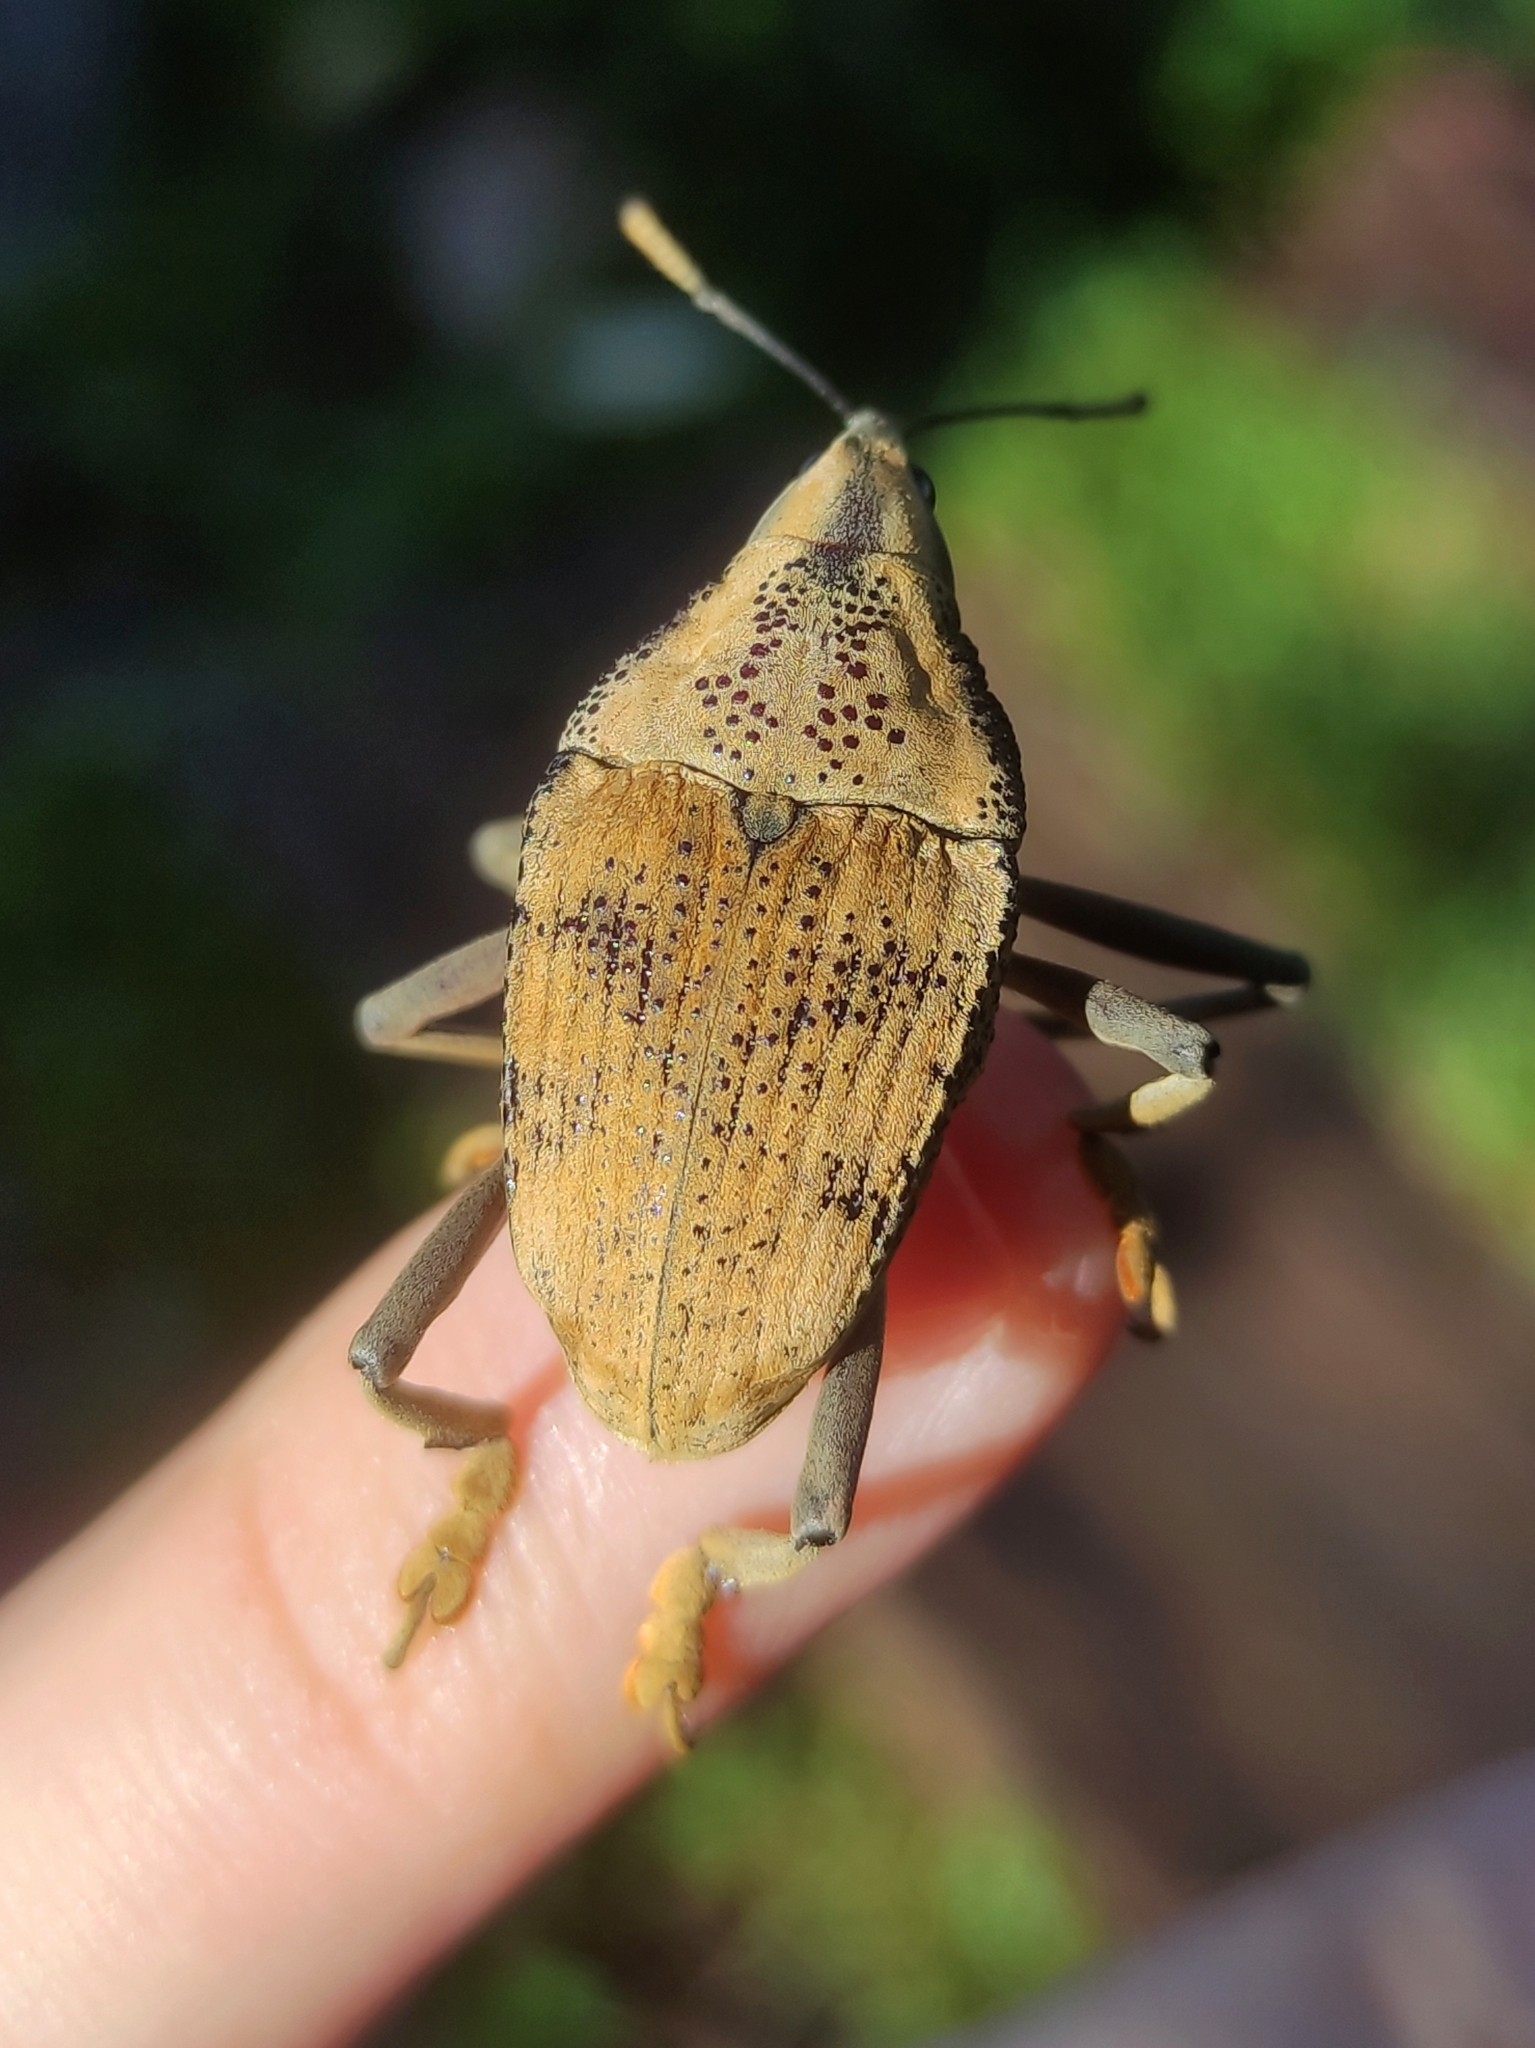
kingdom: Animalia
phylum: Arthropoda
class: Insecta
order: Coleoptera
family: Curculionidae
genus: Rhinastus
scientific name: Rhinastus latisternus
